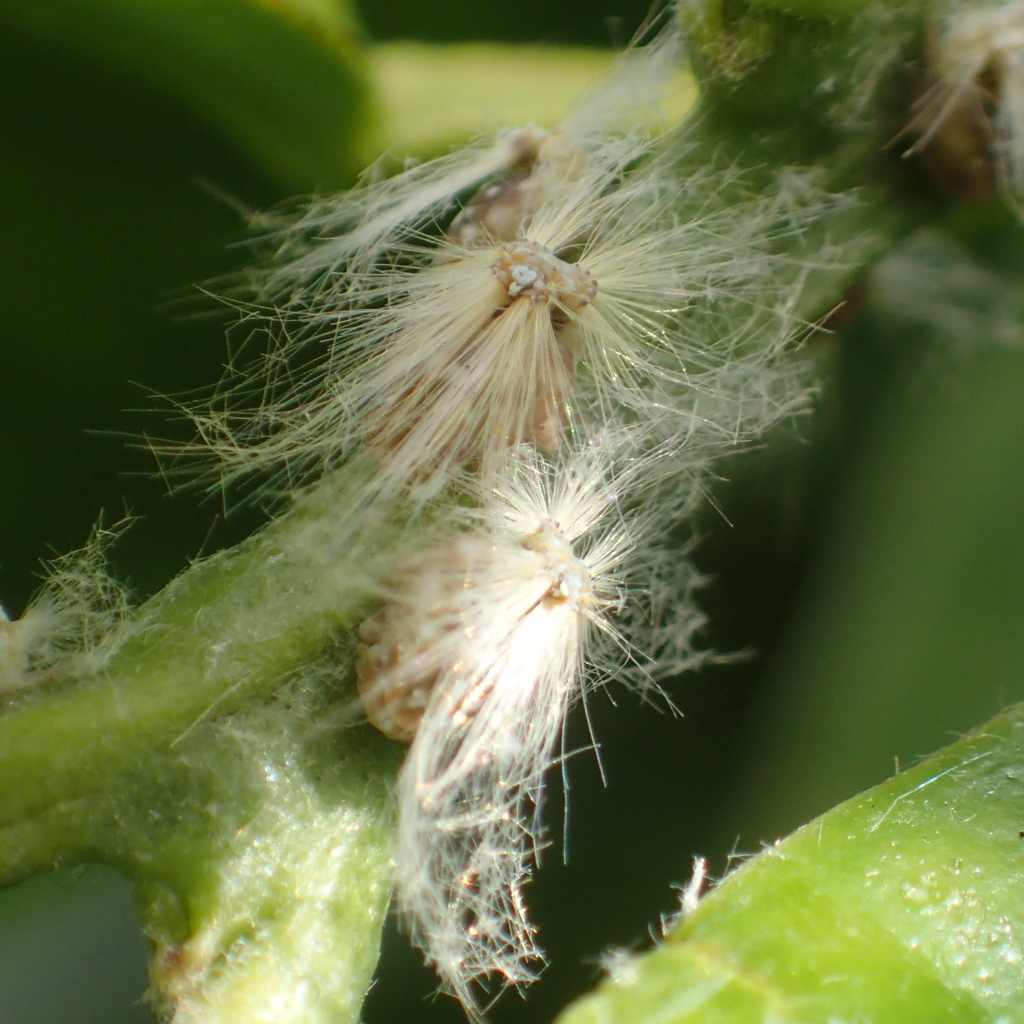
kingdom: Animalia
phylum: Arthropoda
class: Insecta
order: Hemiptera
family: Ricaniidae
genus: Scolypopa
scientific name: Scolypopa australis
